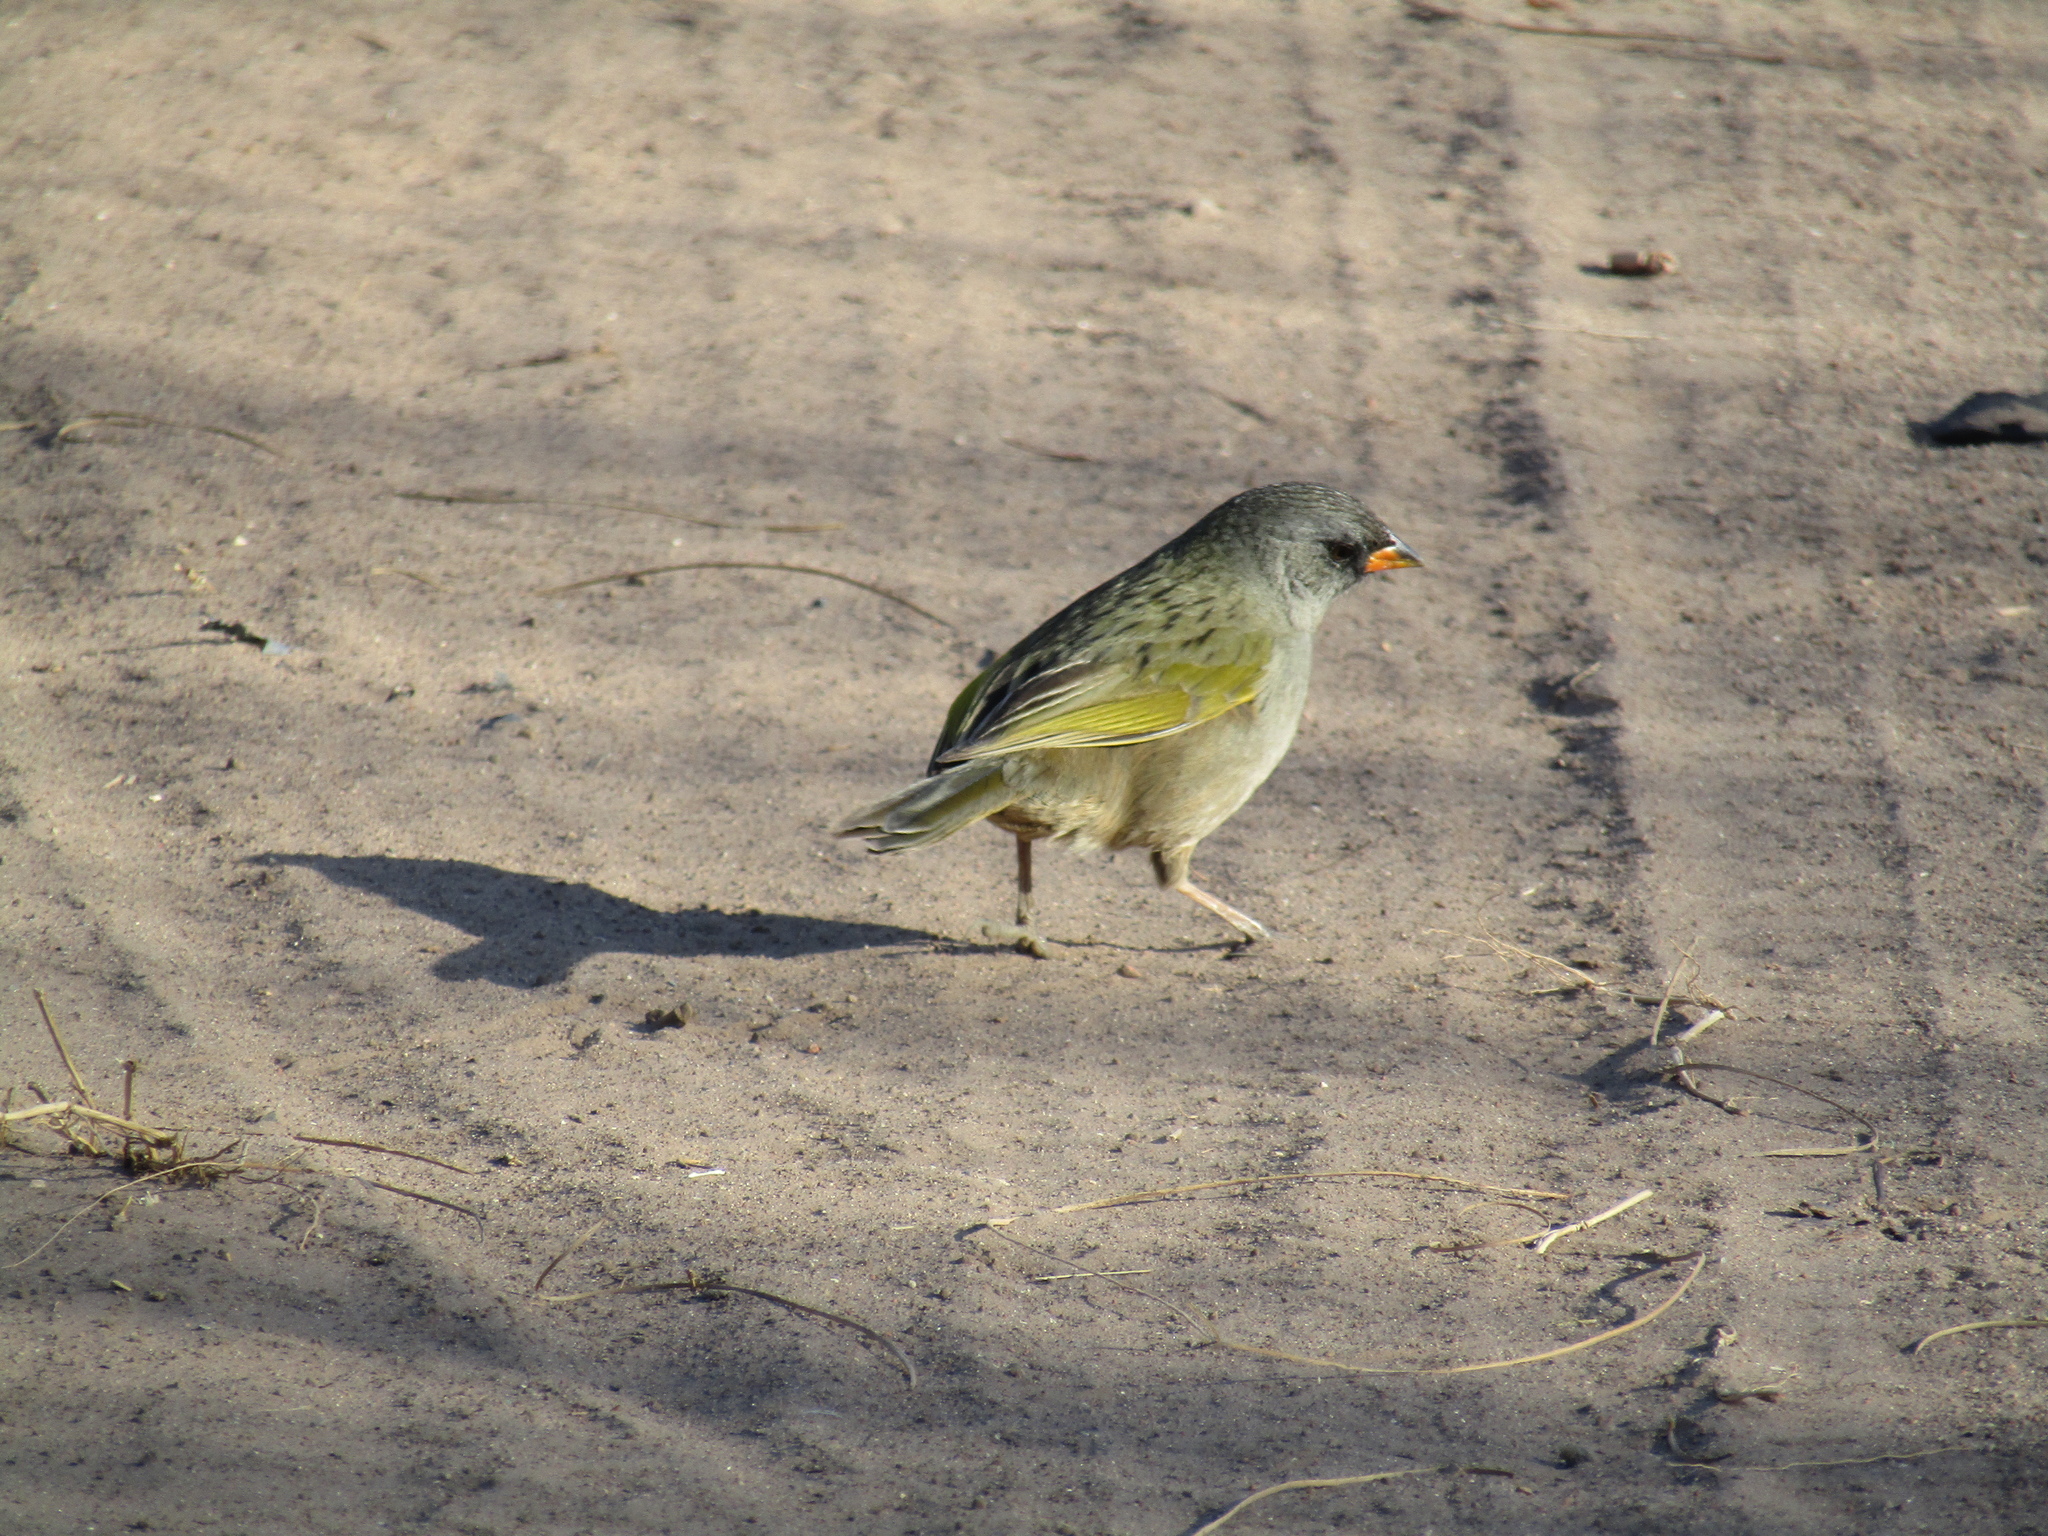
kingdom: Animalia
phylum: Chordata
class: Aves
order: Passeriformes
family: Thraupidae
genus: Embernagra
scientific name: Embernagra platensis
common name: Pampa finch
